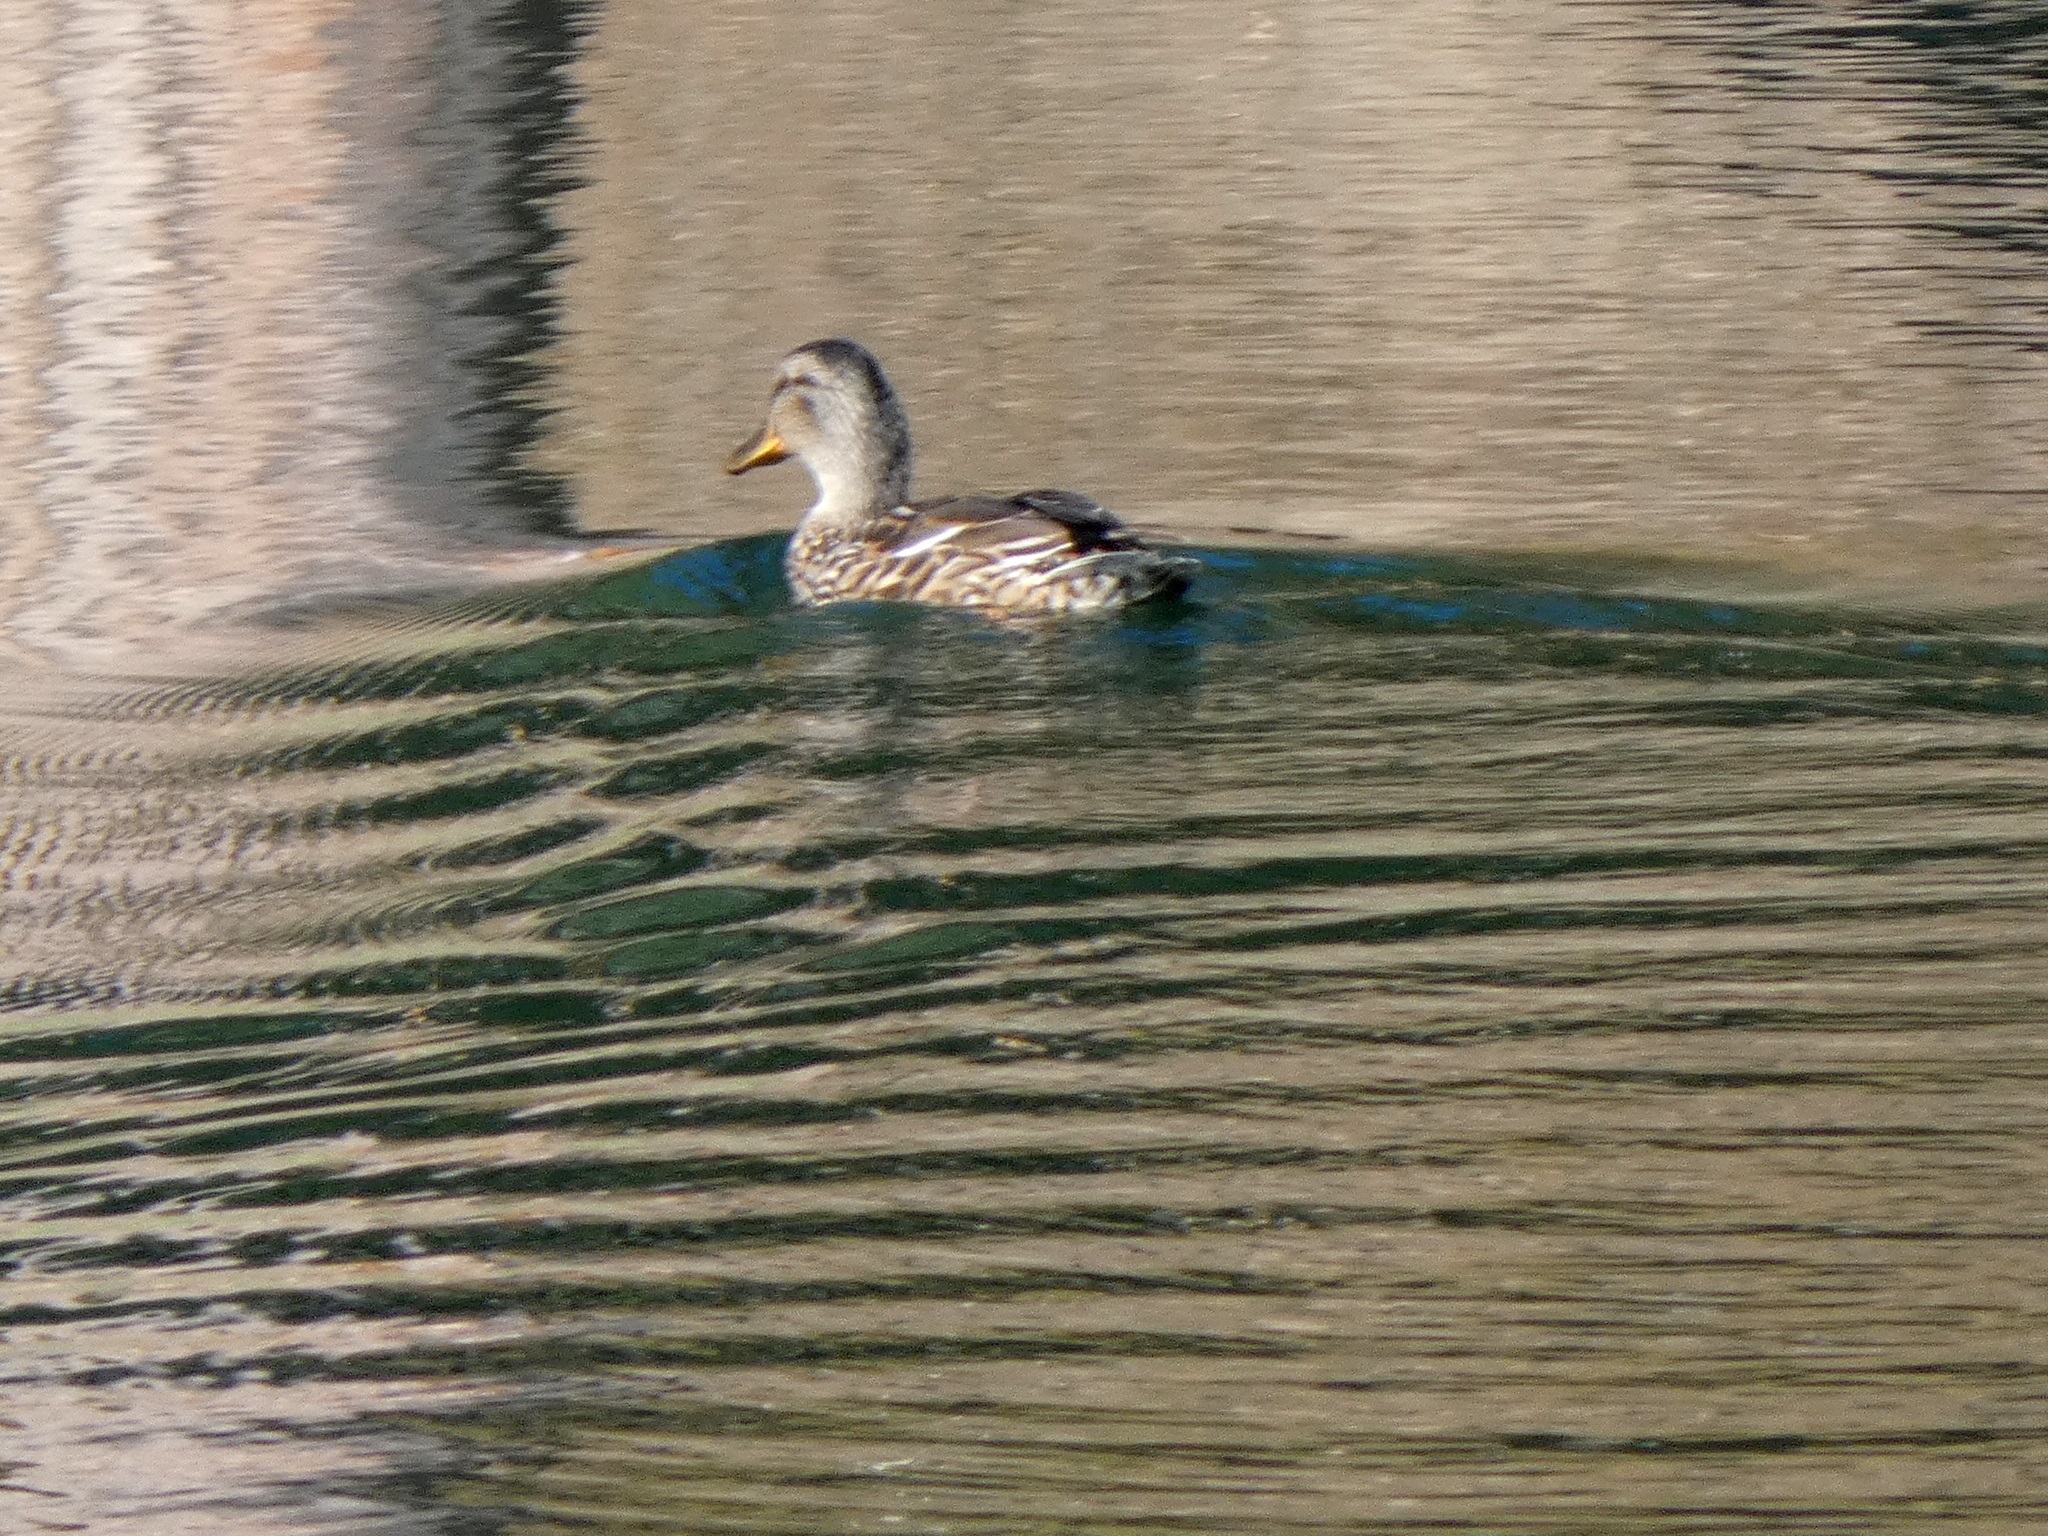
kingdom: Animalia
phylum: Chordata
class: Aves
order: Anseriformes
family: Anatidae
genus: Anas
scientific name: Anas platyrhynchos
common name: Mallard
